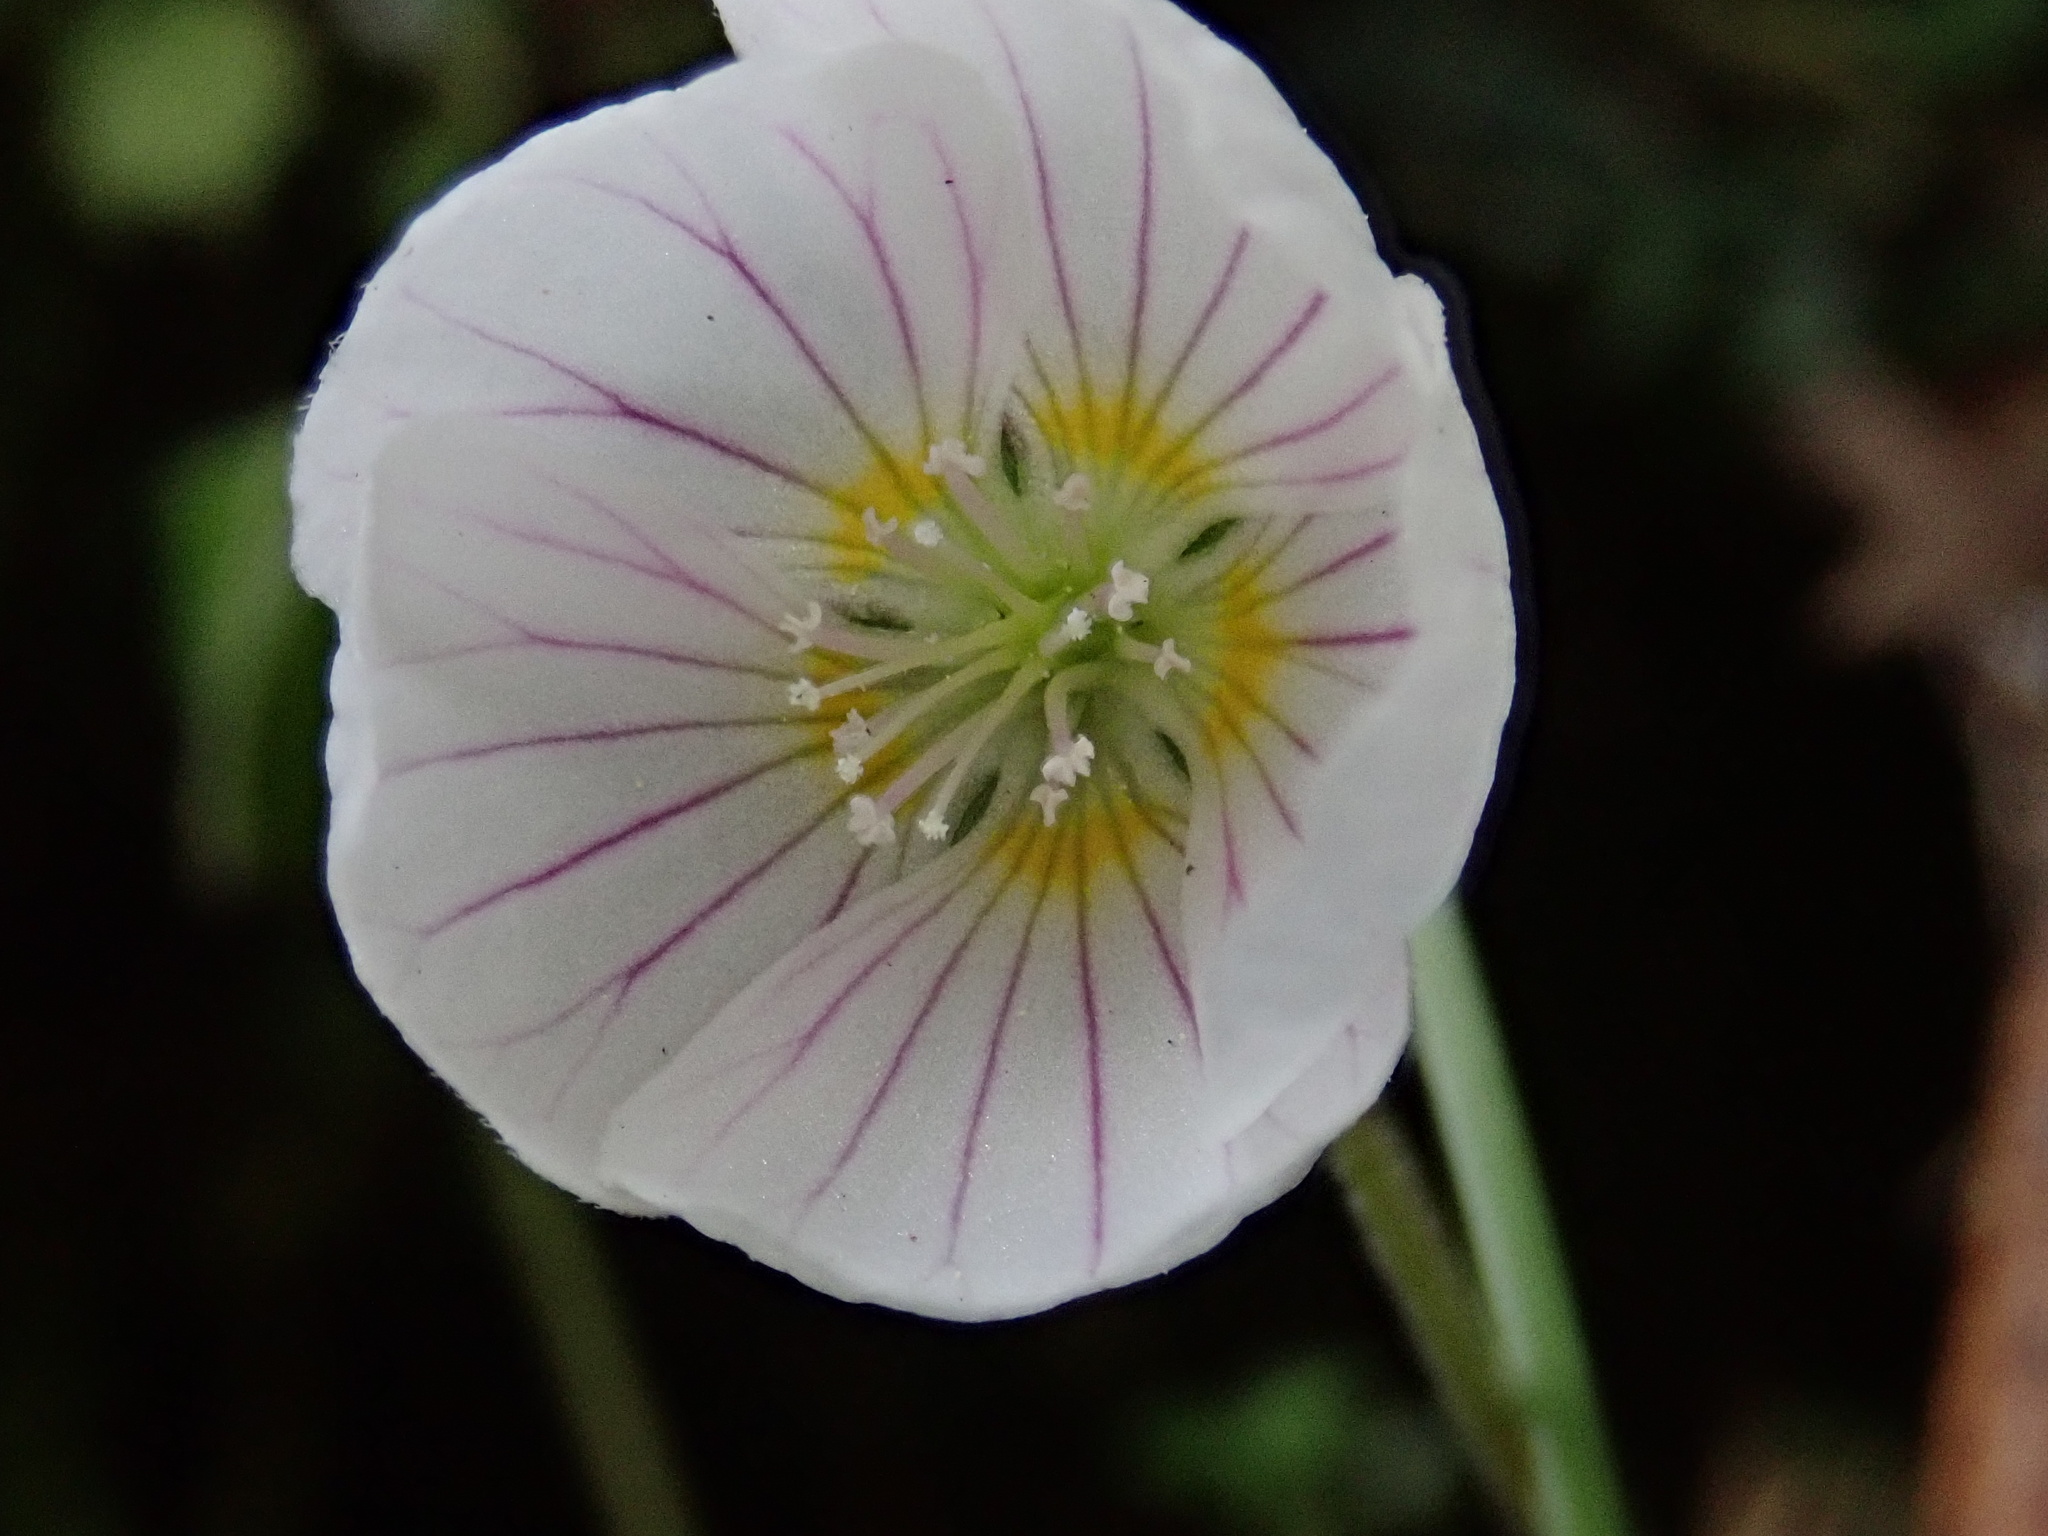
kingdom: Plantae
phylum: Tracheophyta
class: Magnoliopsida
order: Oxalidales
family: Oxalidaceae
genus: Oxalis
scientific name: Oxalis griffithii
